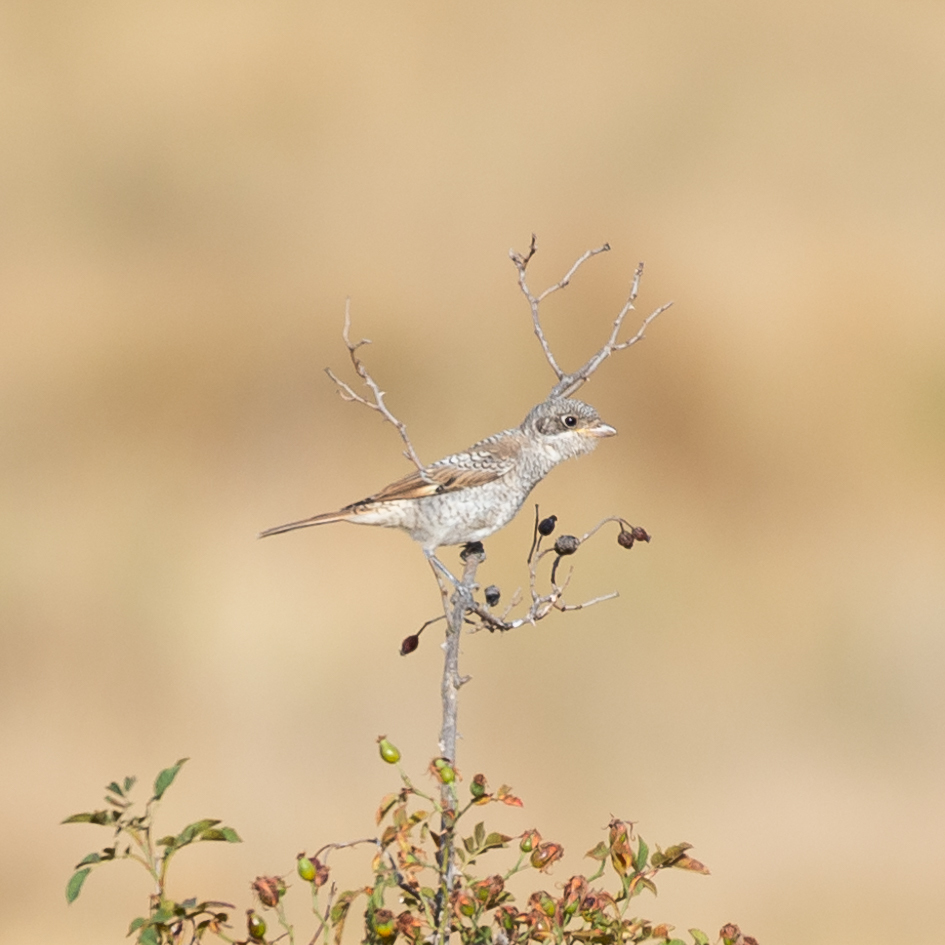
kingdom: Animalia
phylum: Chordata
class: Aves
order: Passeriformes
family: Laniidae
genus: Lanius
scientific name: Lanius senator
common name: Woodchat shrike
